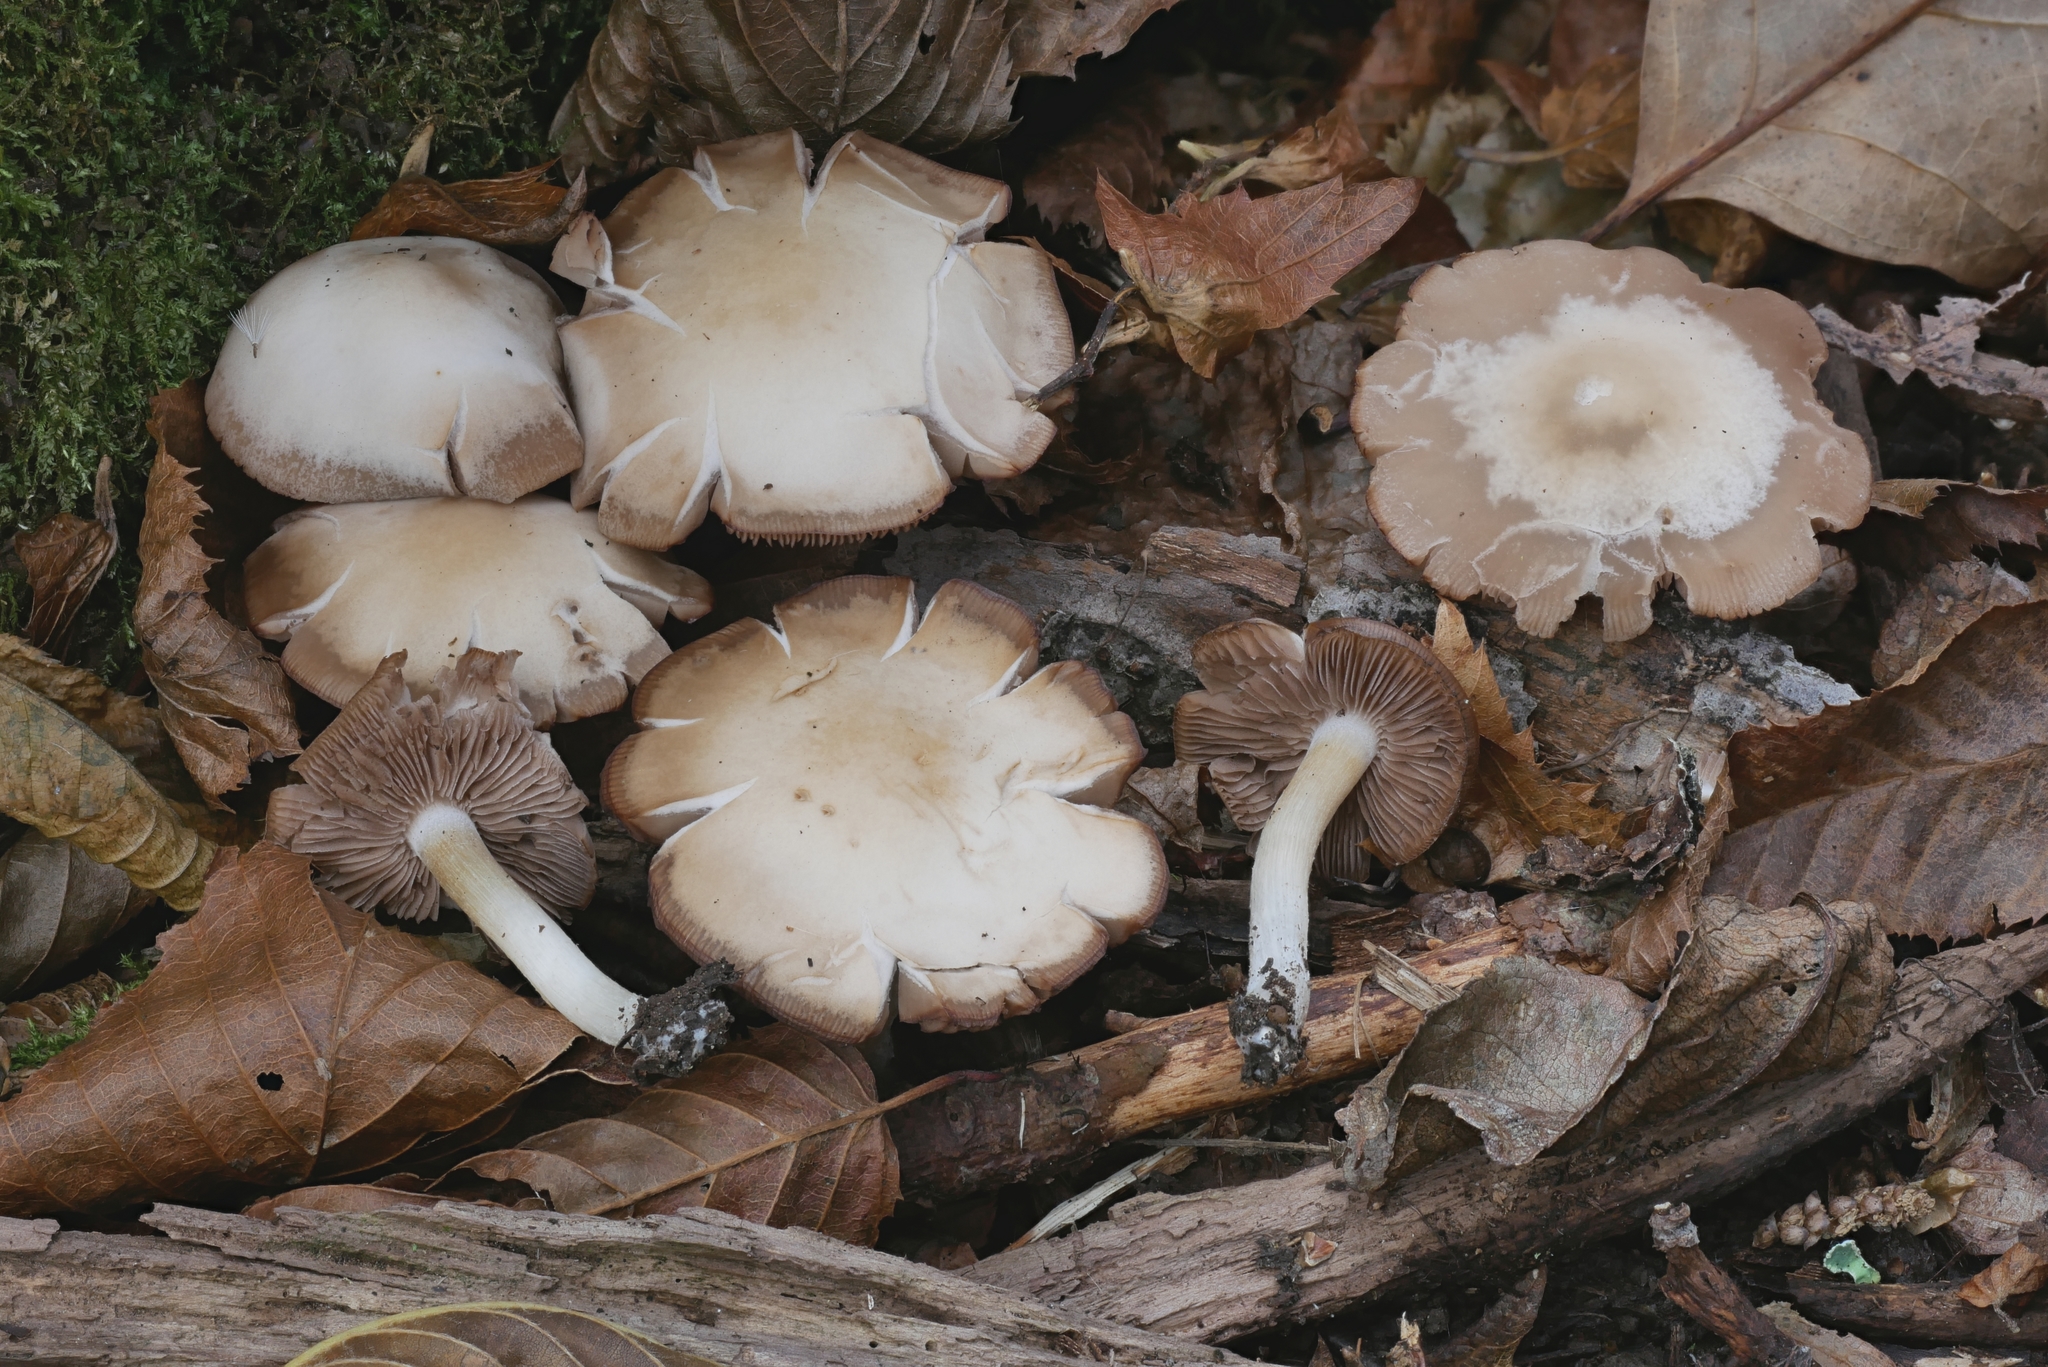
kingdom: Fungi
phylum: Basidiomycota
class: Agaricomycetes
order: Agaricales
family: Psathyrellaceae
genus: Homophron
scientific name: Homophron spadiceum
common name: Chestnut brittlestem
